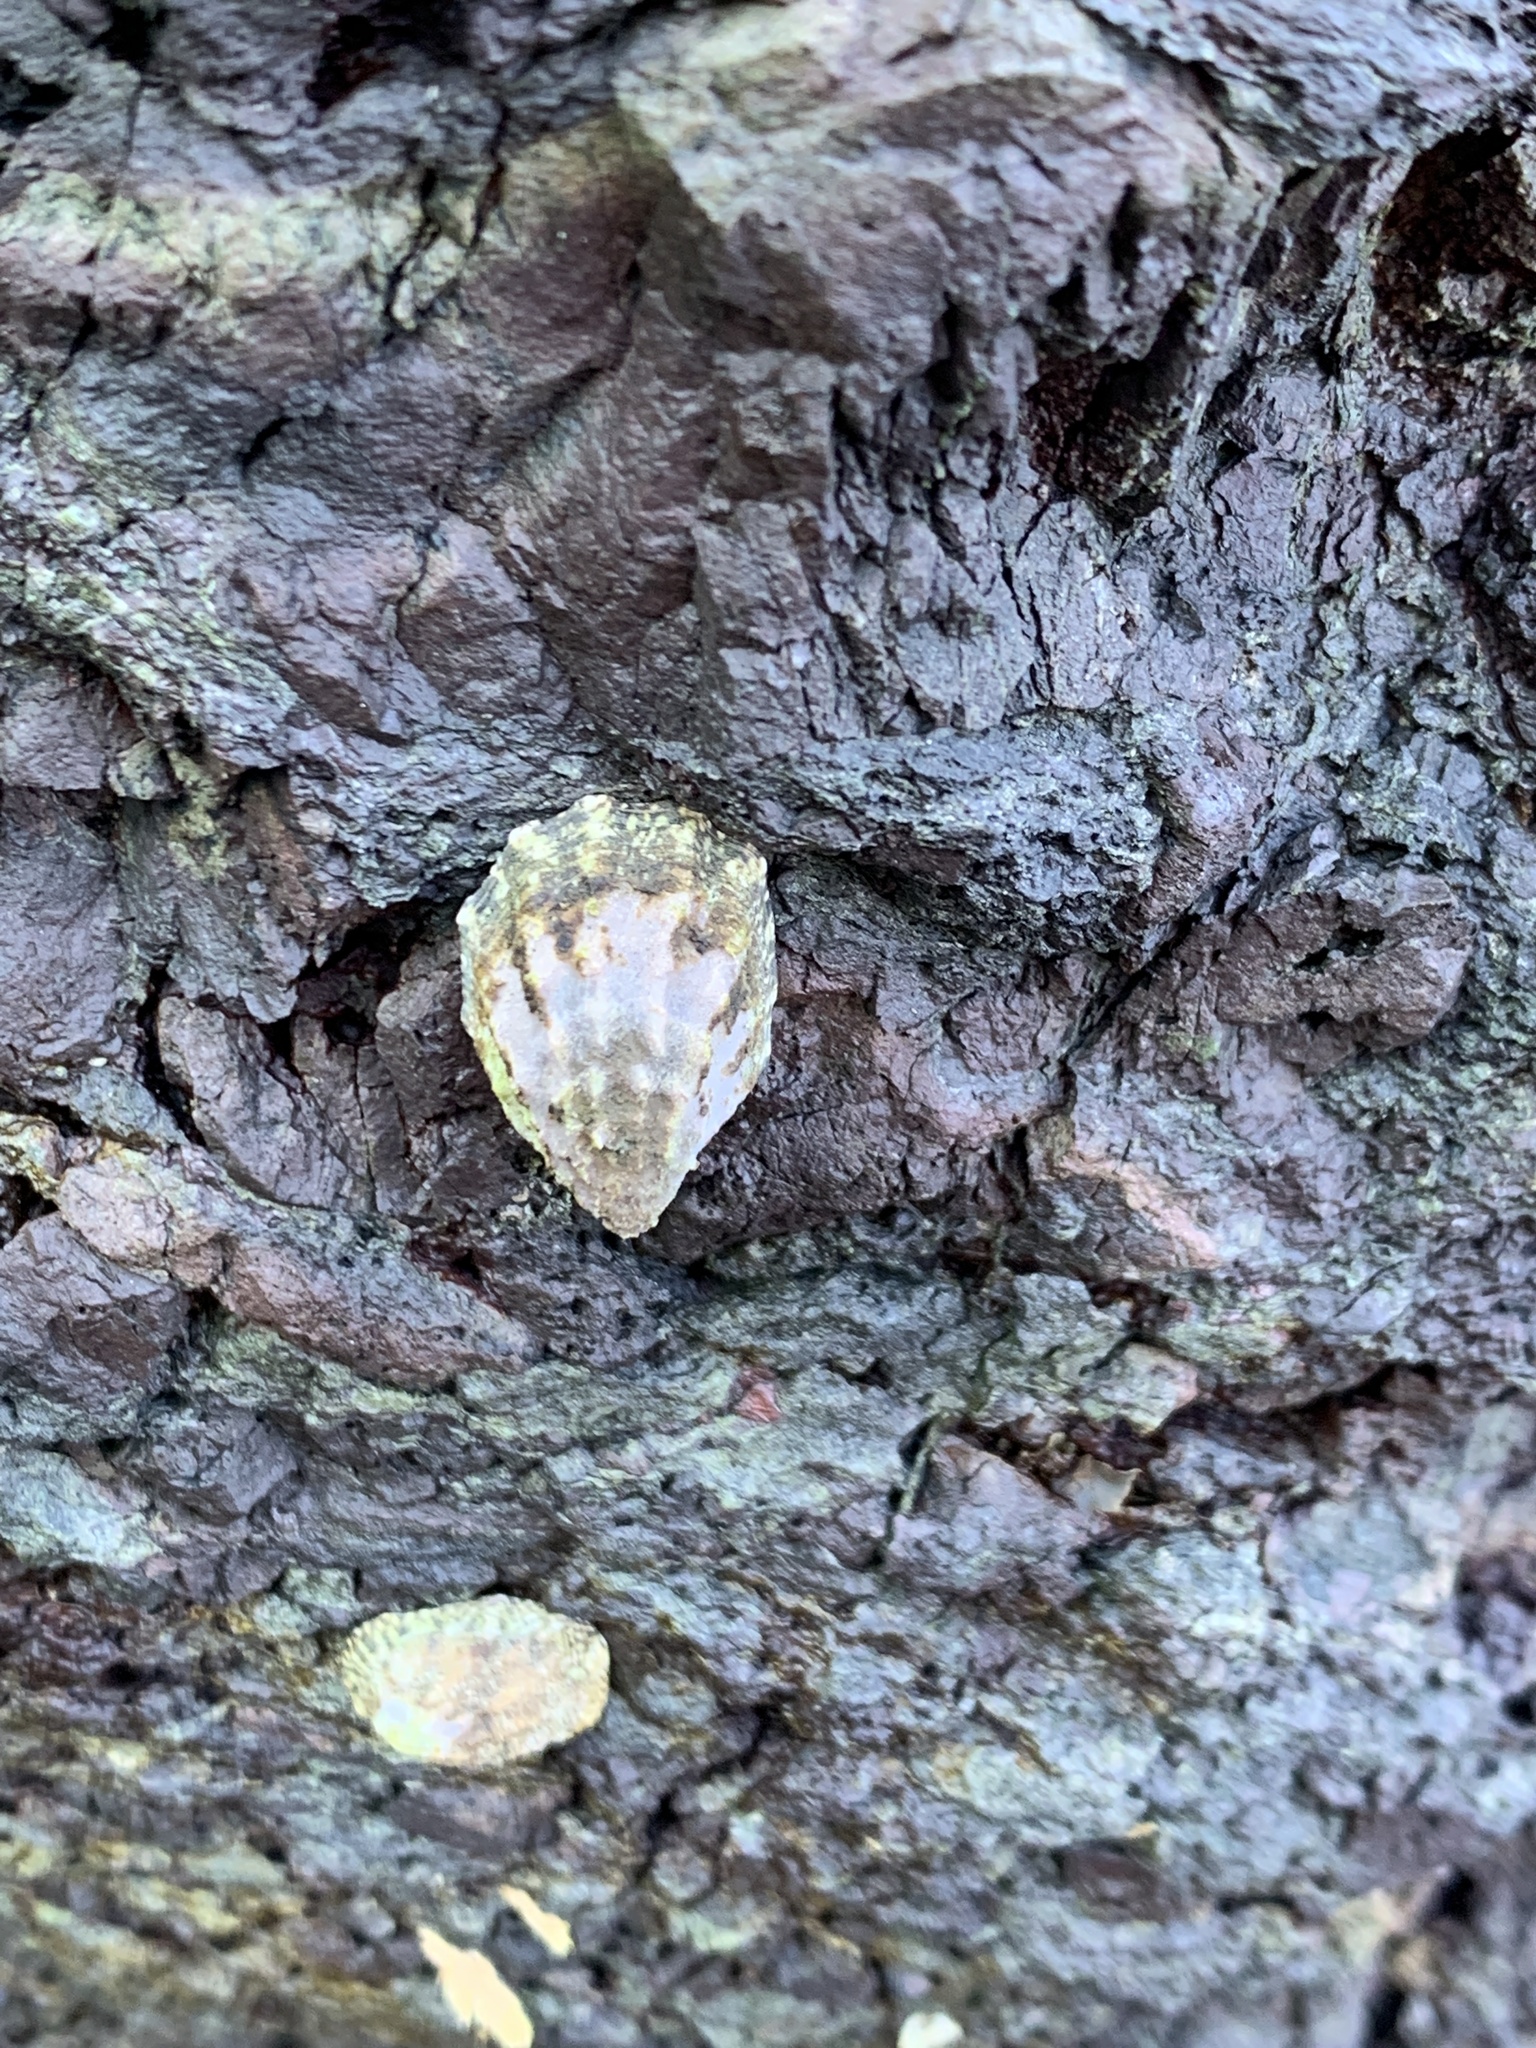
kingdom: Animalia
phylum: Mollusca
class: Gastropoda
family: Lottiidae
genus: Lottia
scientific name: Lottia digitalis
